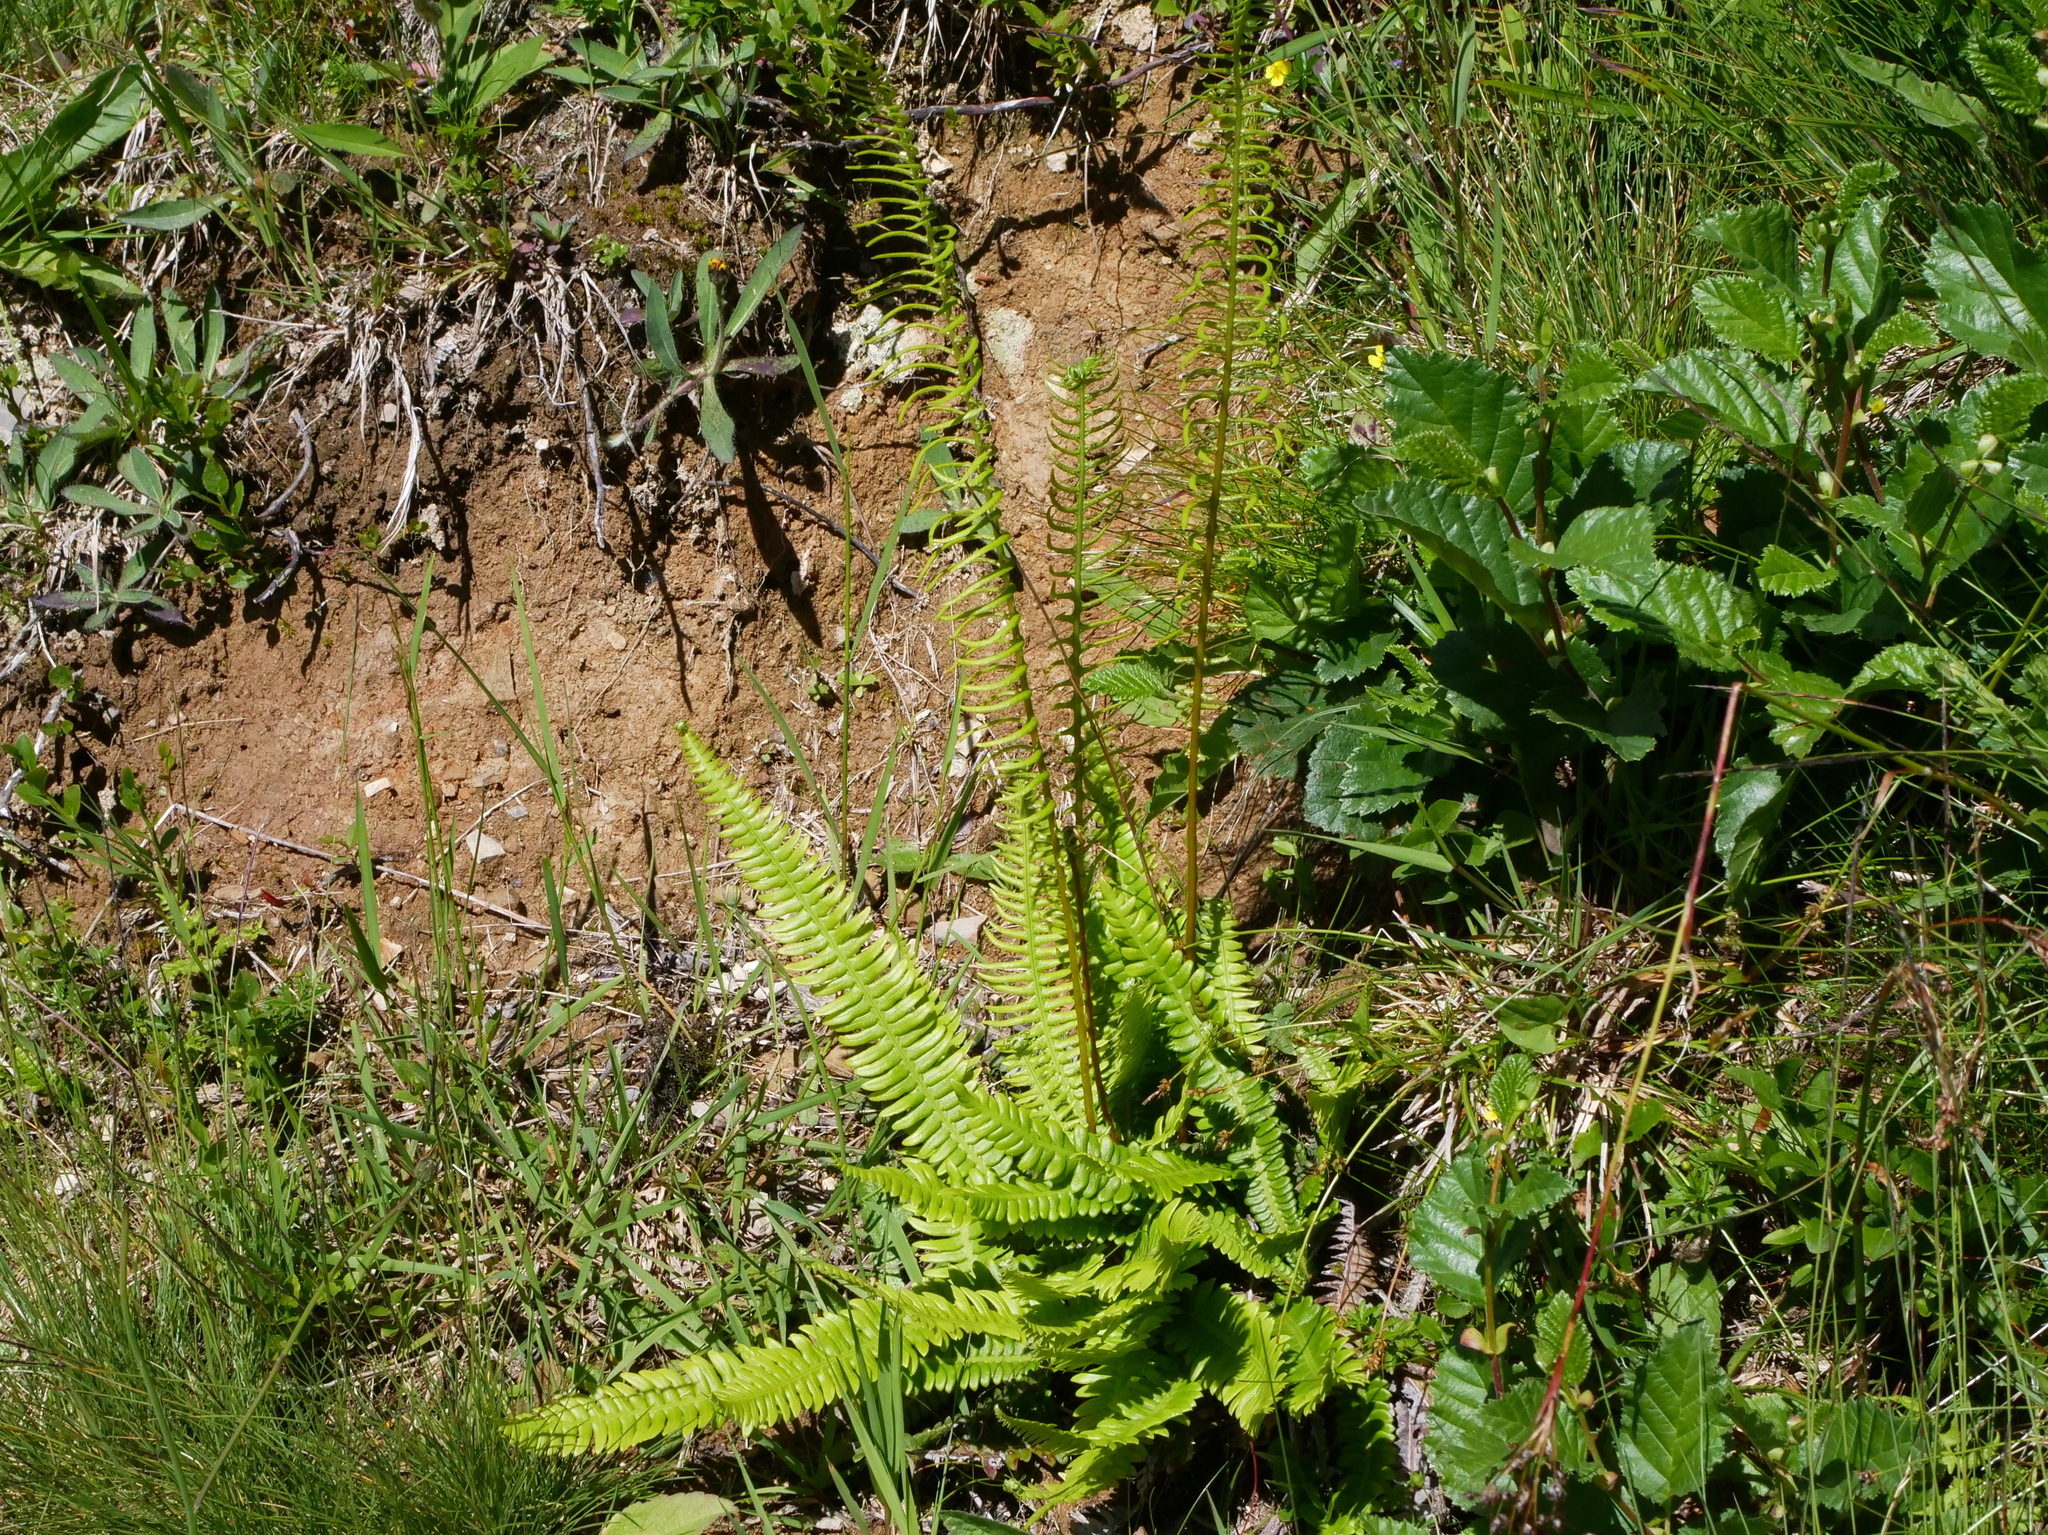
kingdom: Plantae
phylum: Tracheophyta
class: Polypodiopsida
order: Polypodiales
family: Blechnaceae
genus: Struthiopteris
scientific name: Struthiopteris spicant
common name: Deer fern
